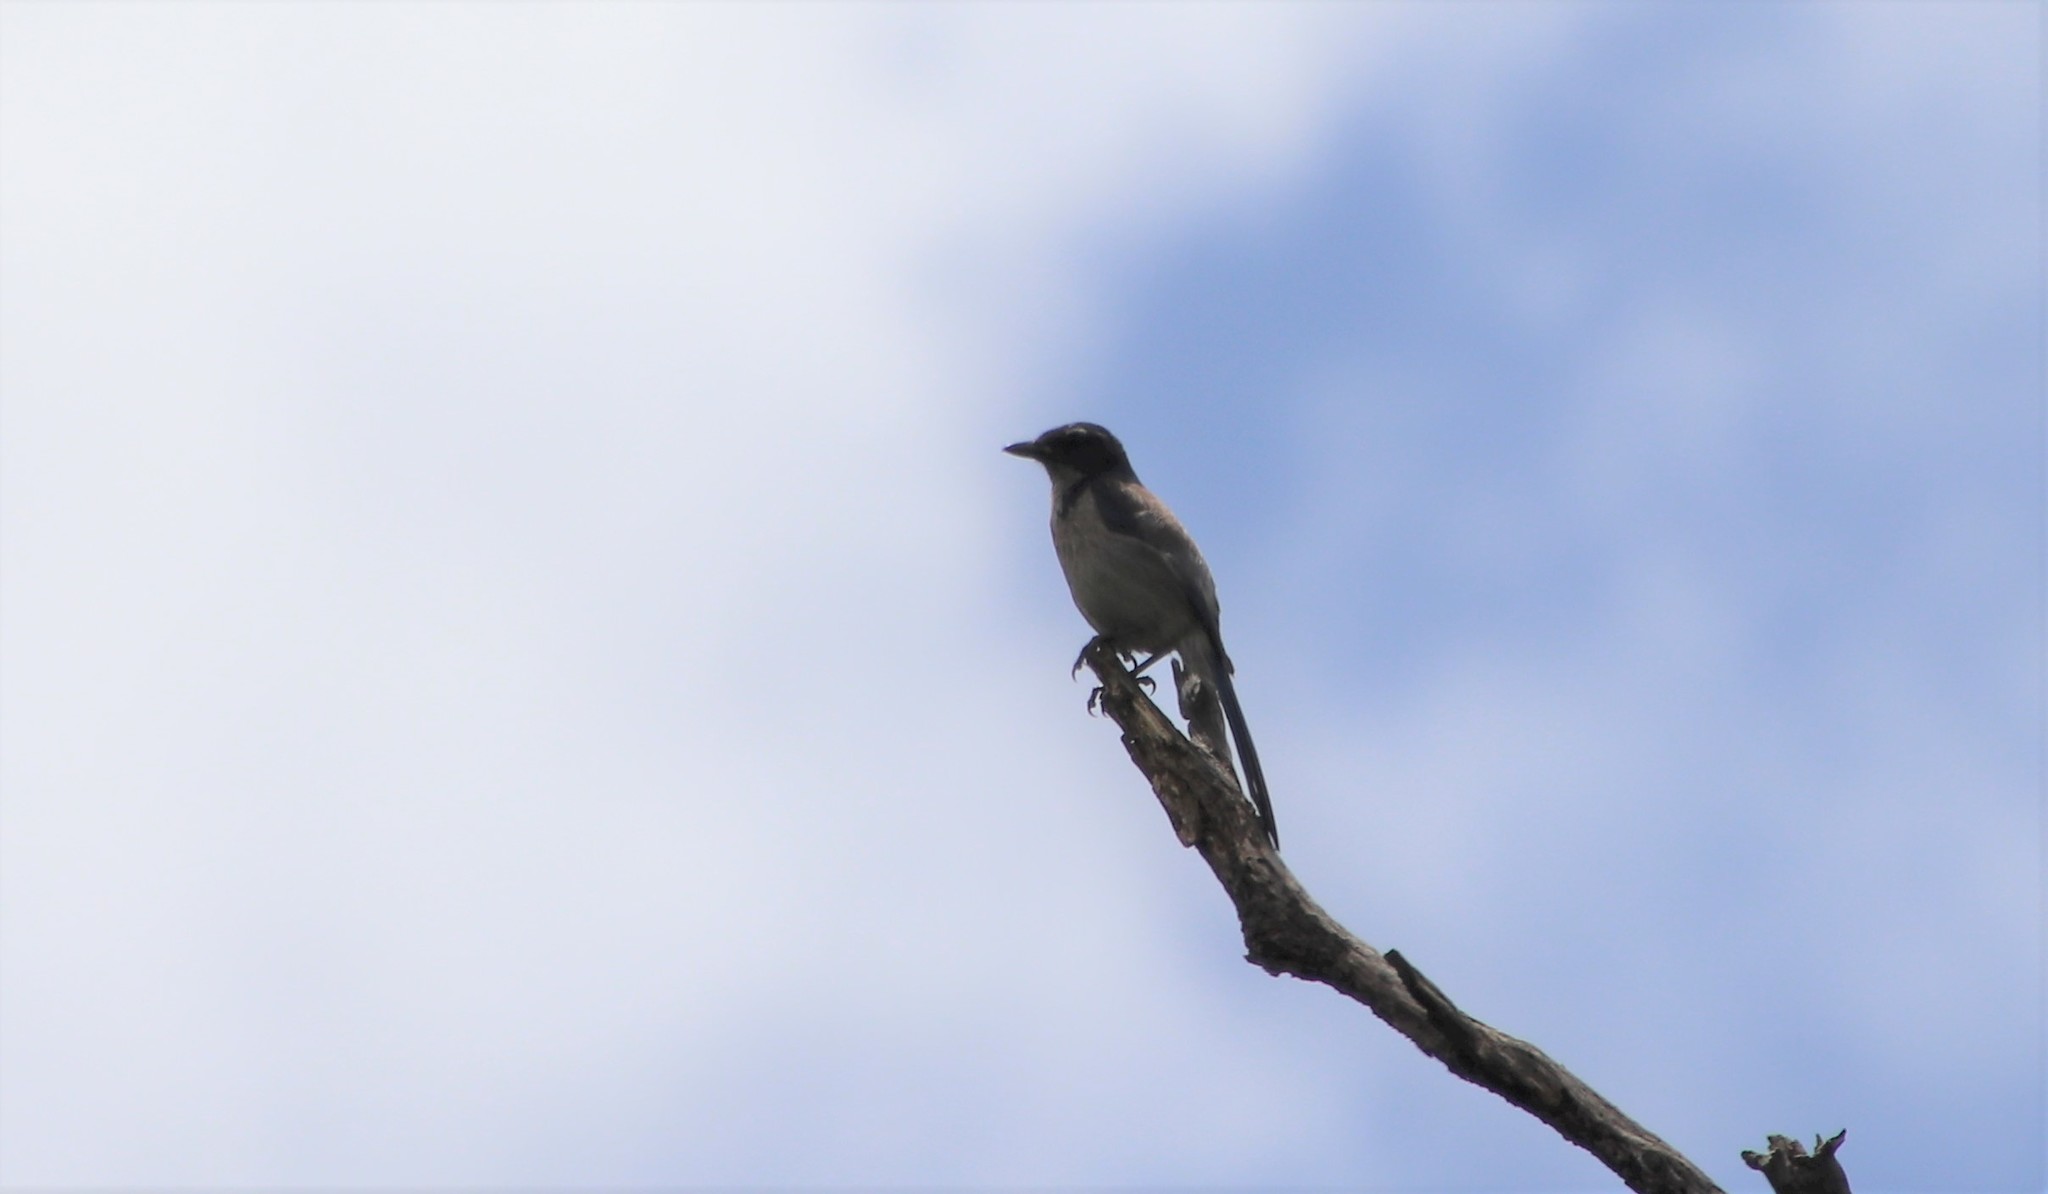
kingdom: Animalia
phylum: Chordata
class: Aves
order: Passeriformes
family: Corvidae
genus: Aphelocoma
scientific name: Aphelocoma californica
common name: California scrub-jay
